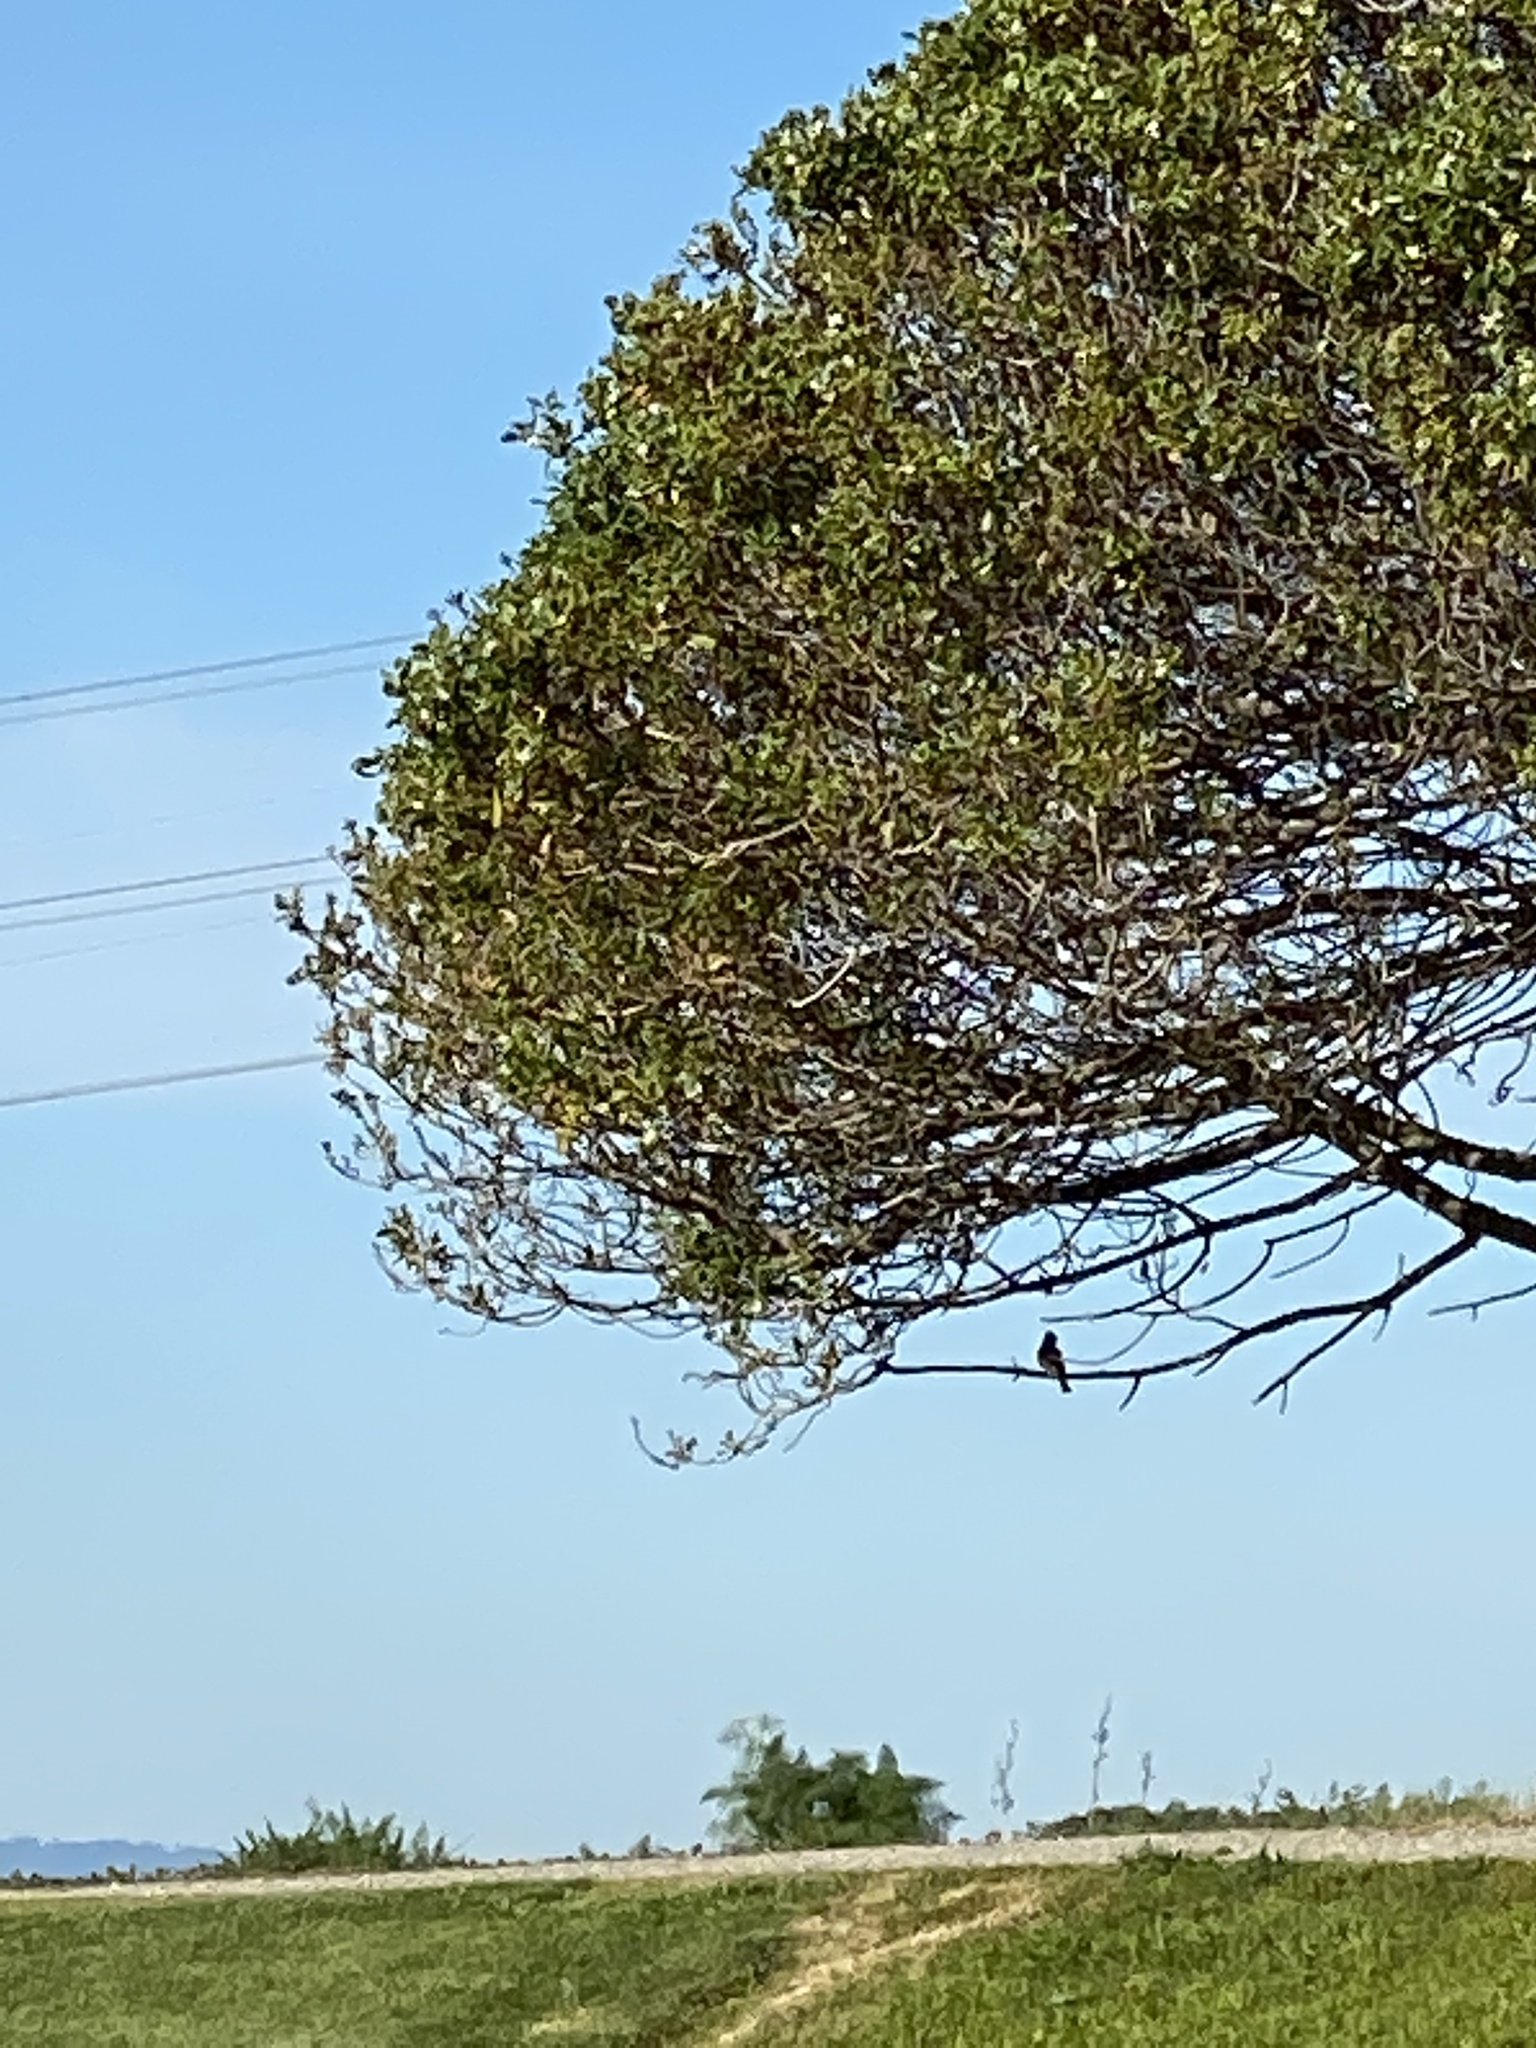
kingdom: Animalia
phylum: Chordata
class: Aves
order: Passeriformes
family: Tyrannidae
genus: Sayornis
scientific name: Sayornis nigricans
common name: Black phoebe
